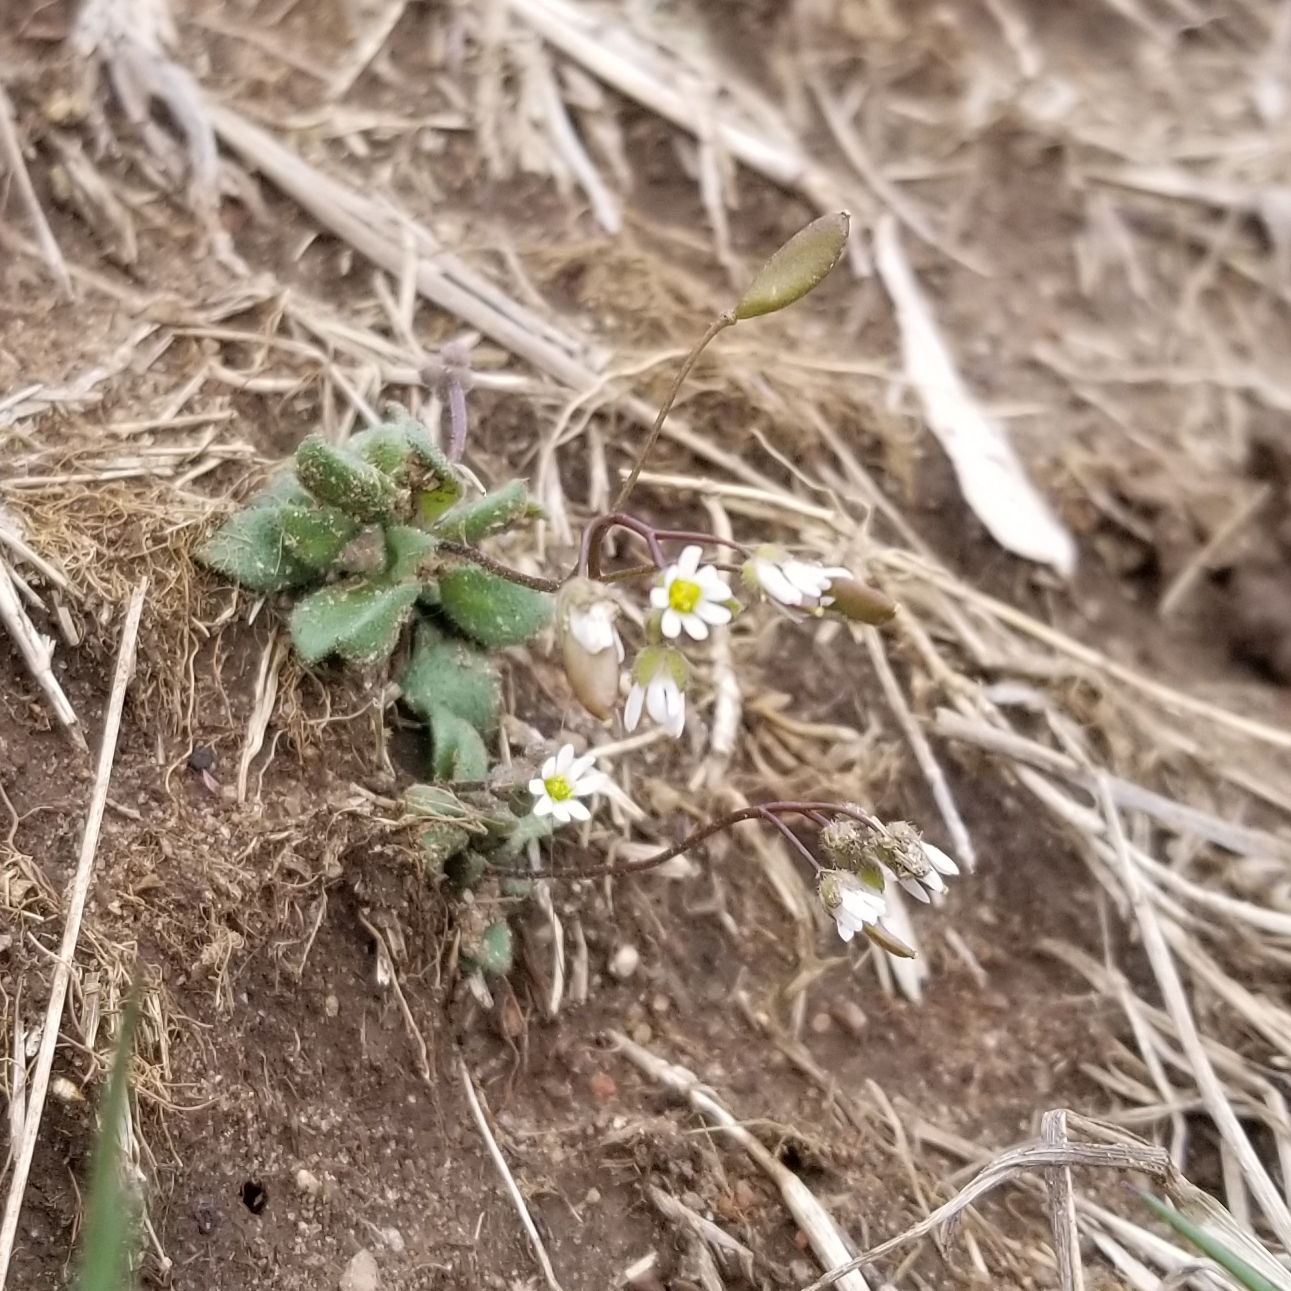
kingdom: Plantae
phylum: Tracheophyta
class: Magnoliopsida
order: Brassicales
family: Brassicaceae
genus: Draba
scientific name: Draba verna
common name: Spring draba
